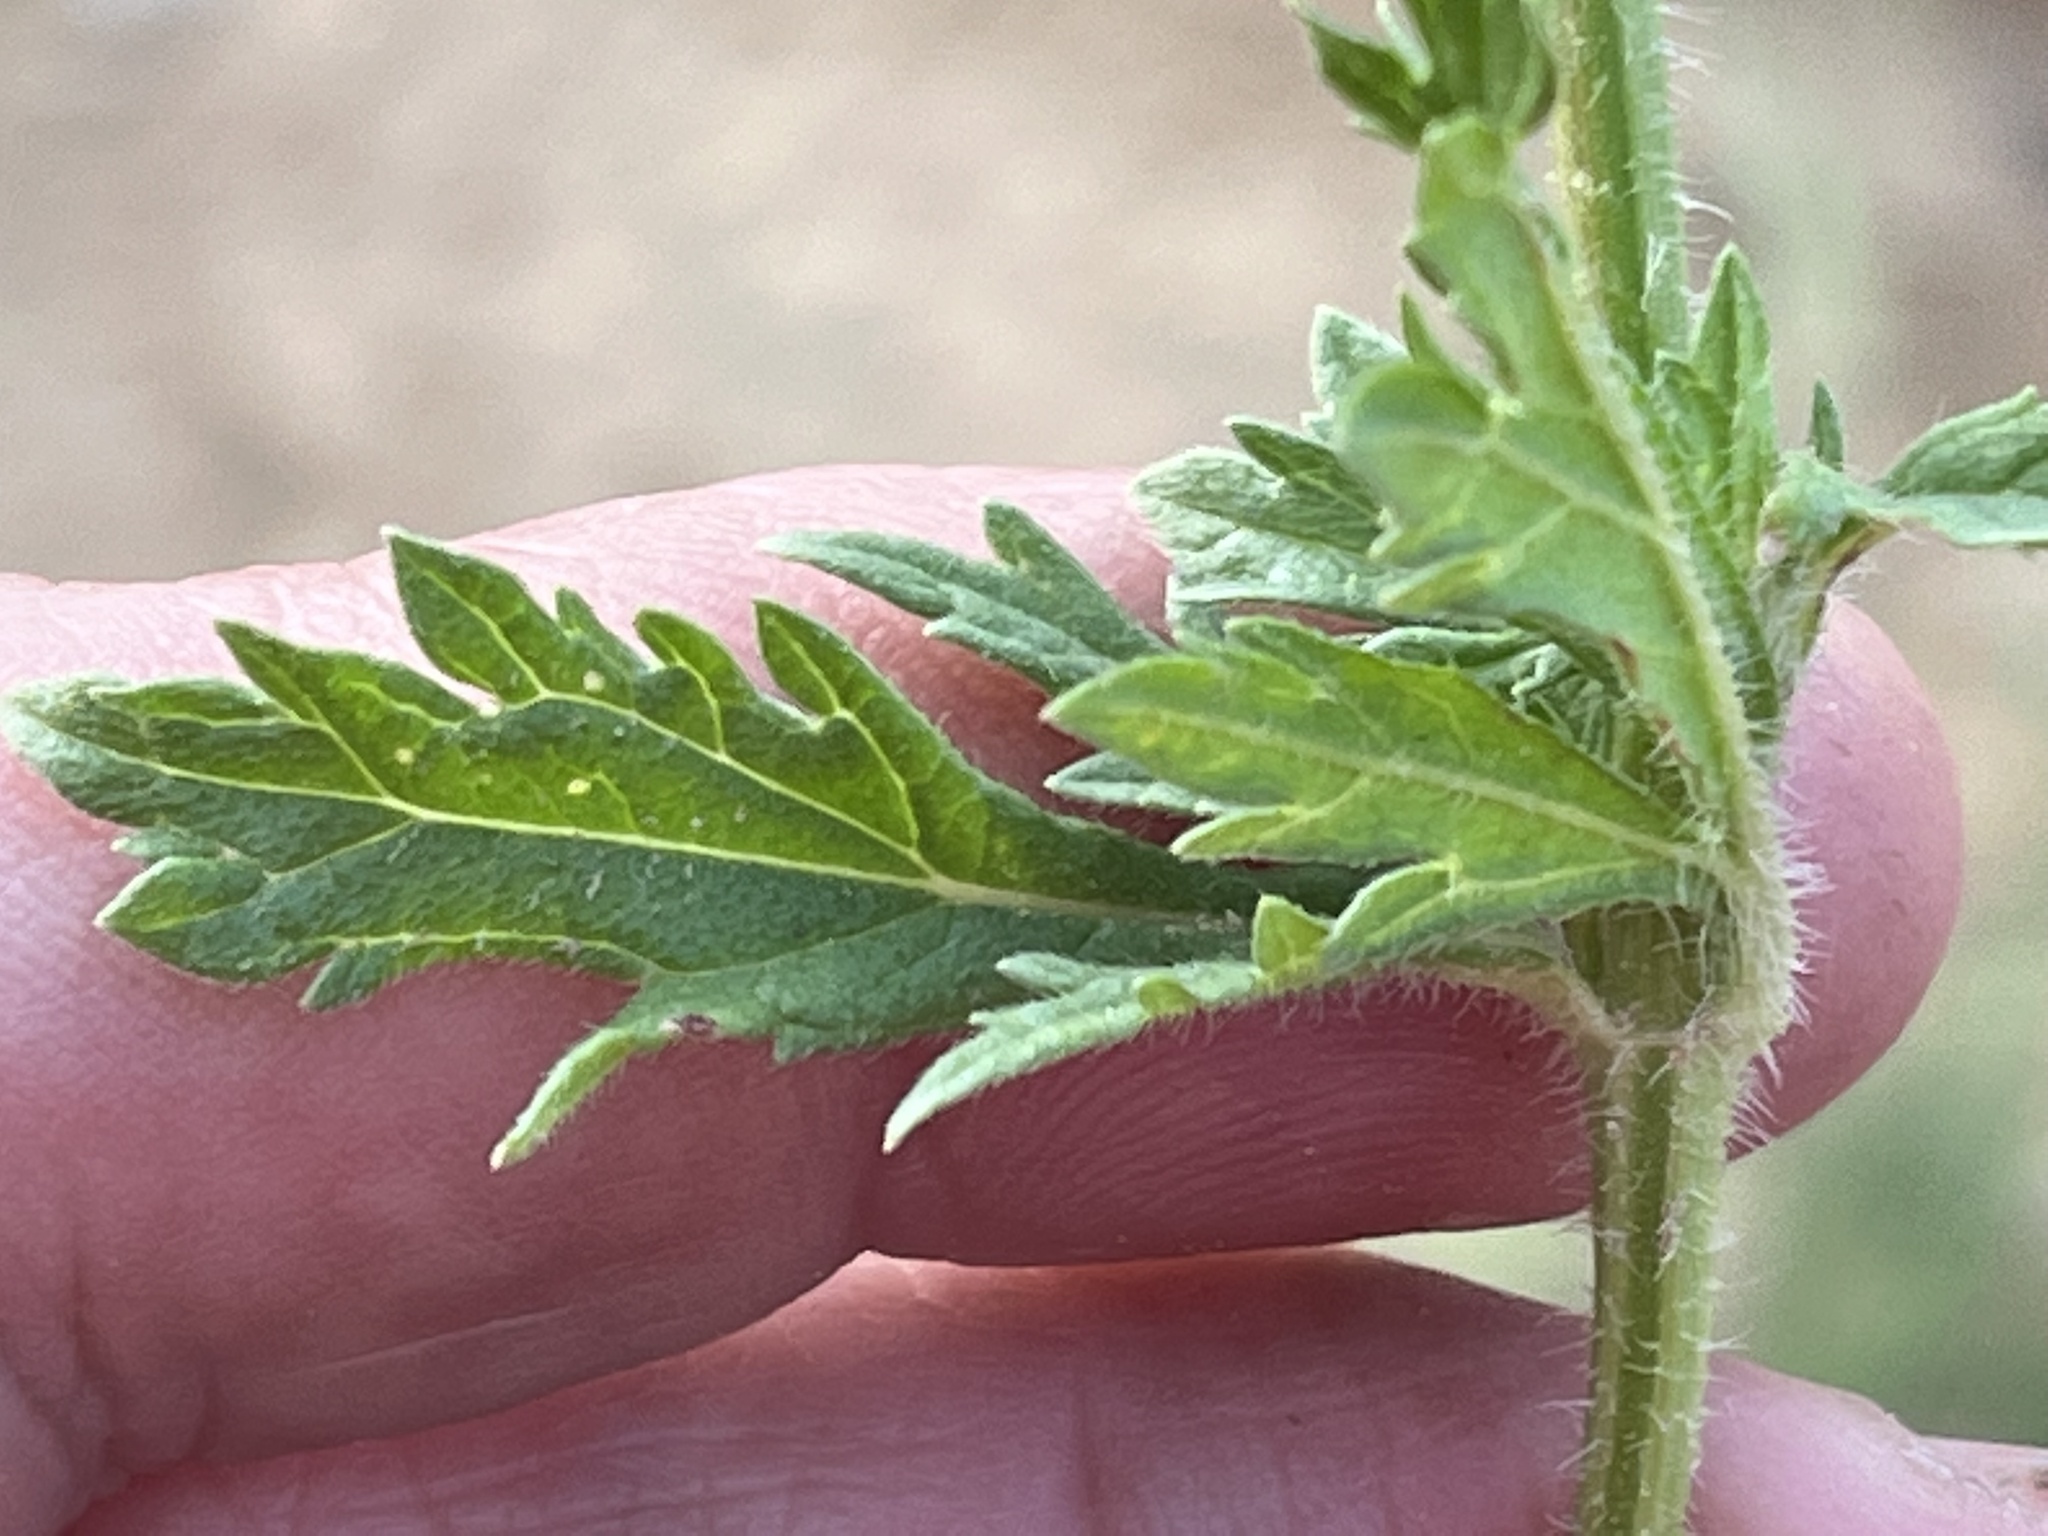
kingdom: Plantae
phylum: Tracheophyta
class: Magnoliopsida
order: Lamiales
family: Verbenaceae
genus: Verbena
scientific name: Verbena bracteata
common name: Bracted vervain
